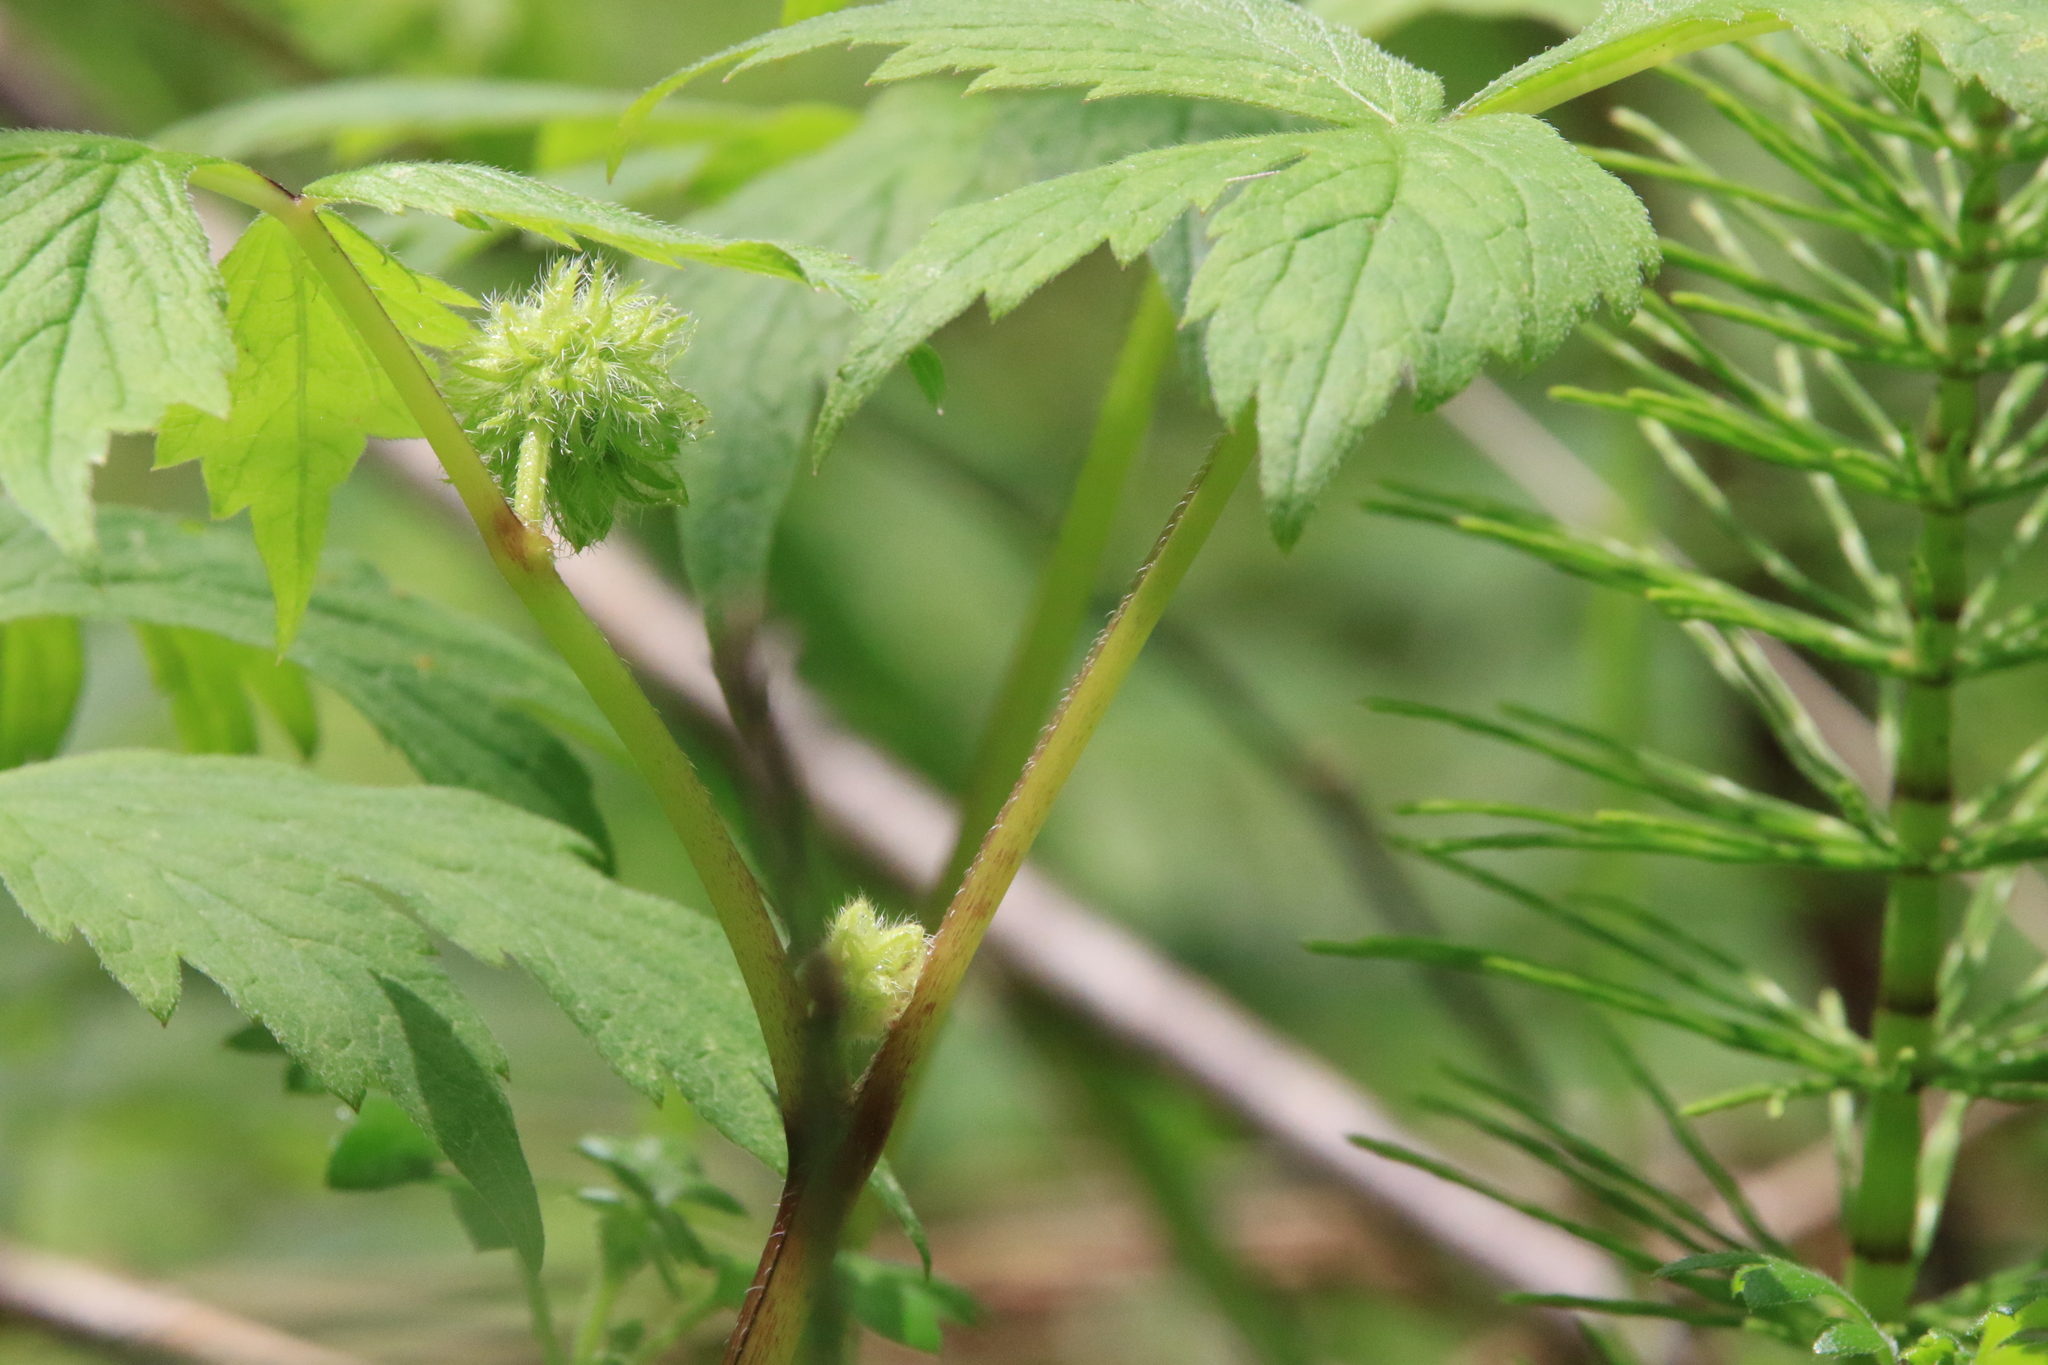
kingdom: Plantae
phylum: Tracheophyta
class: Magnoliopsida
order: Boraginales
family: Hydrophyllaceae
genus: Hydrophyllum
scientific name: Hydrophyllum tenuipes
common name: Pacific waterleaf
